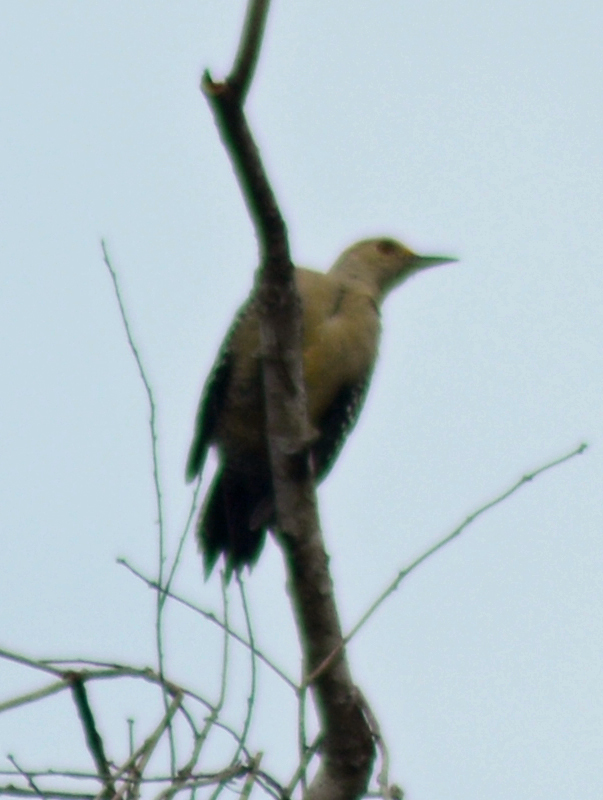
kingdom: Animalia
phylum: Chordata
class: Aves
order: Piciformes
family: Picidae
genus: Melanerpes
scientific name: Melanerpes aurifrons
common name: Golden-fronted woodpecker
